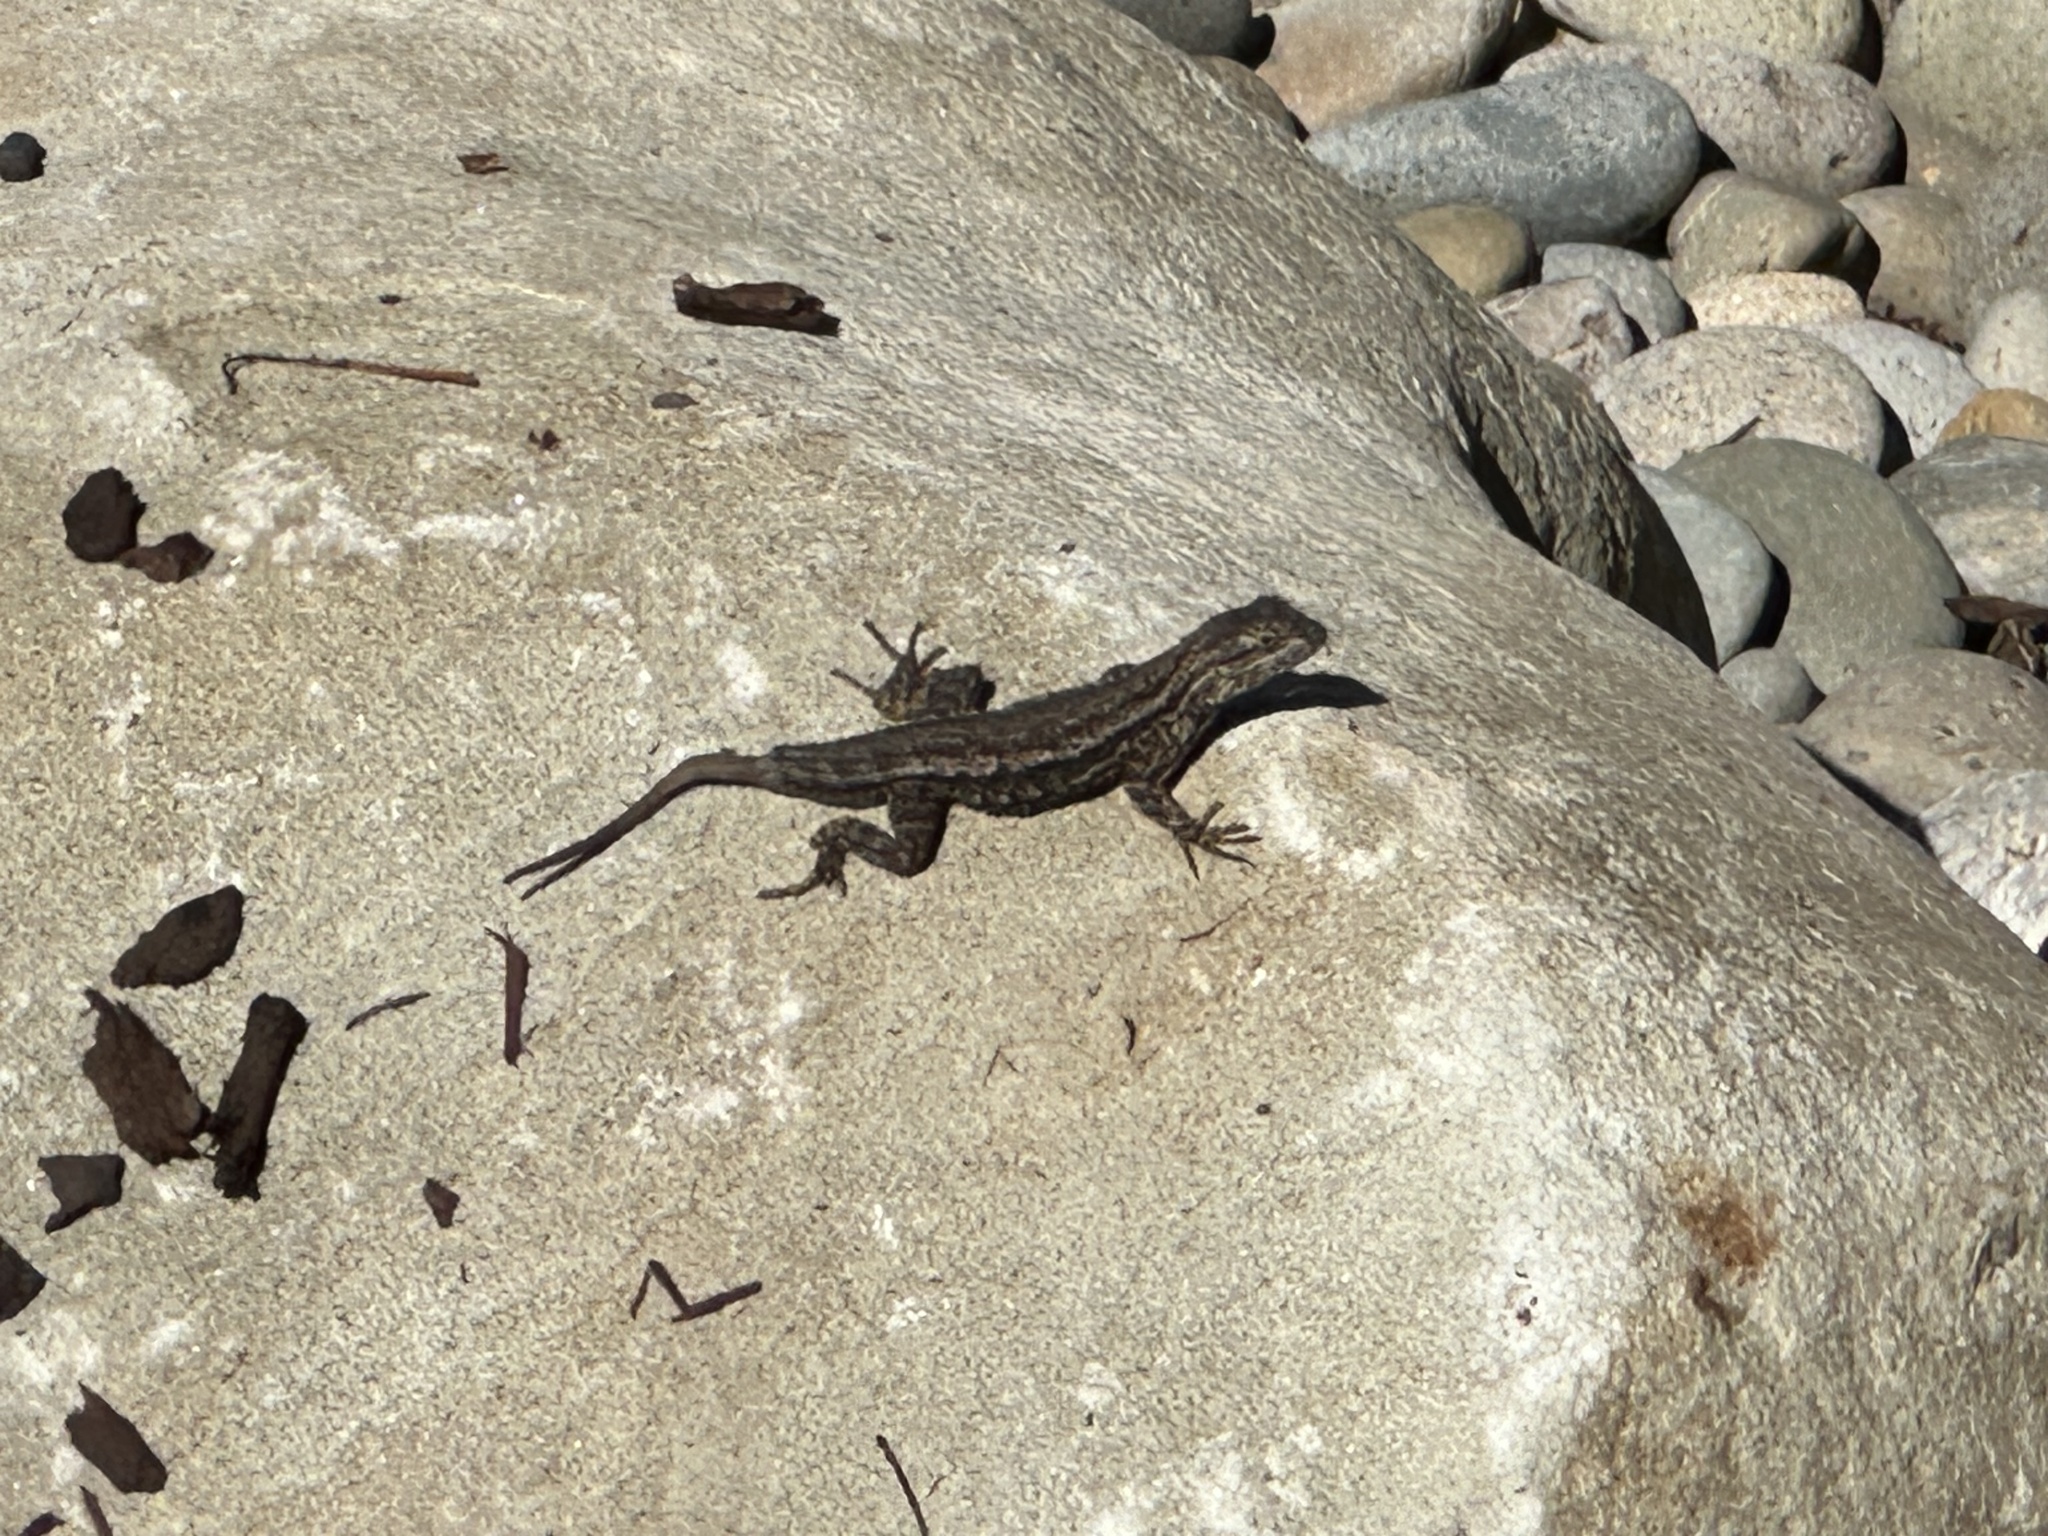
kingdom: Animalia
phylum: Chordata
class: Squamata
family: Phrynosomatidae
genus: Sceloporus
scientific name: Sceloporus occidentalis
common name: Western fence lizard
